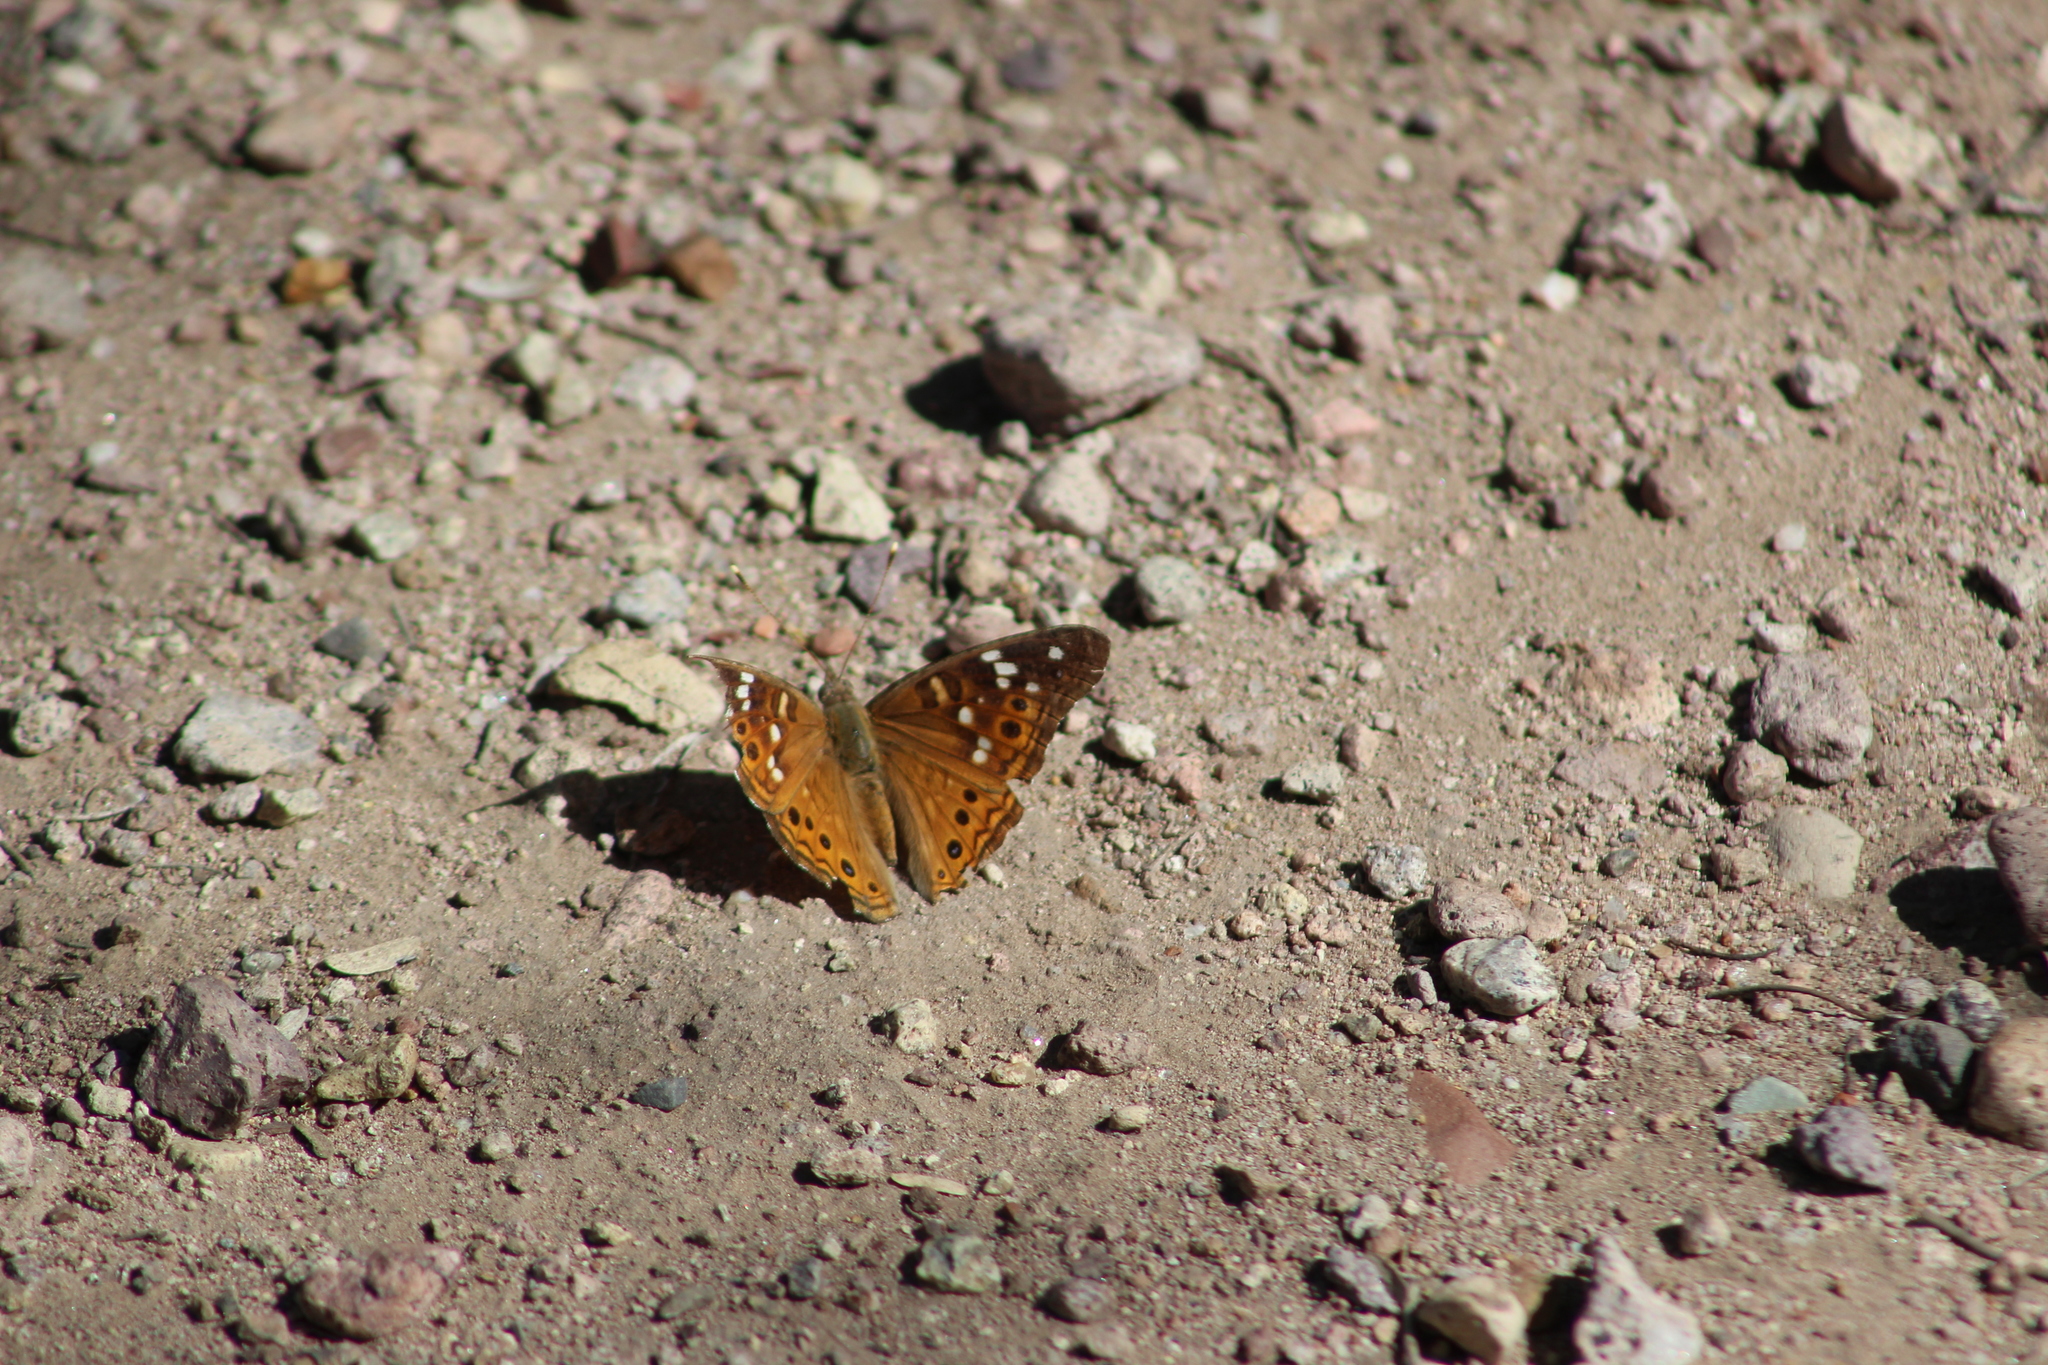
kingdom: Animalia
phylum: Arthropoda
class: Insecta
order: Lepidoptera
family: Nymphalidae
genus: Asterocampa
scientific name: Asterocampa leilia
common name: Empress leilia
